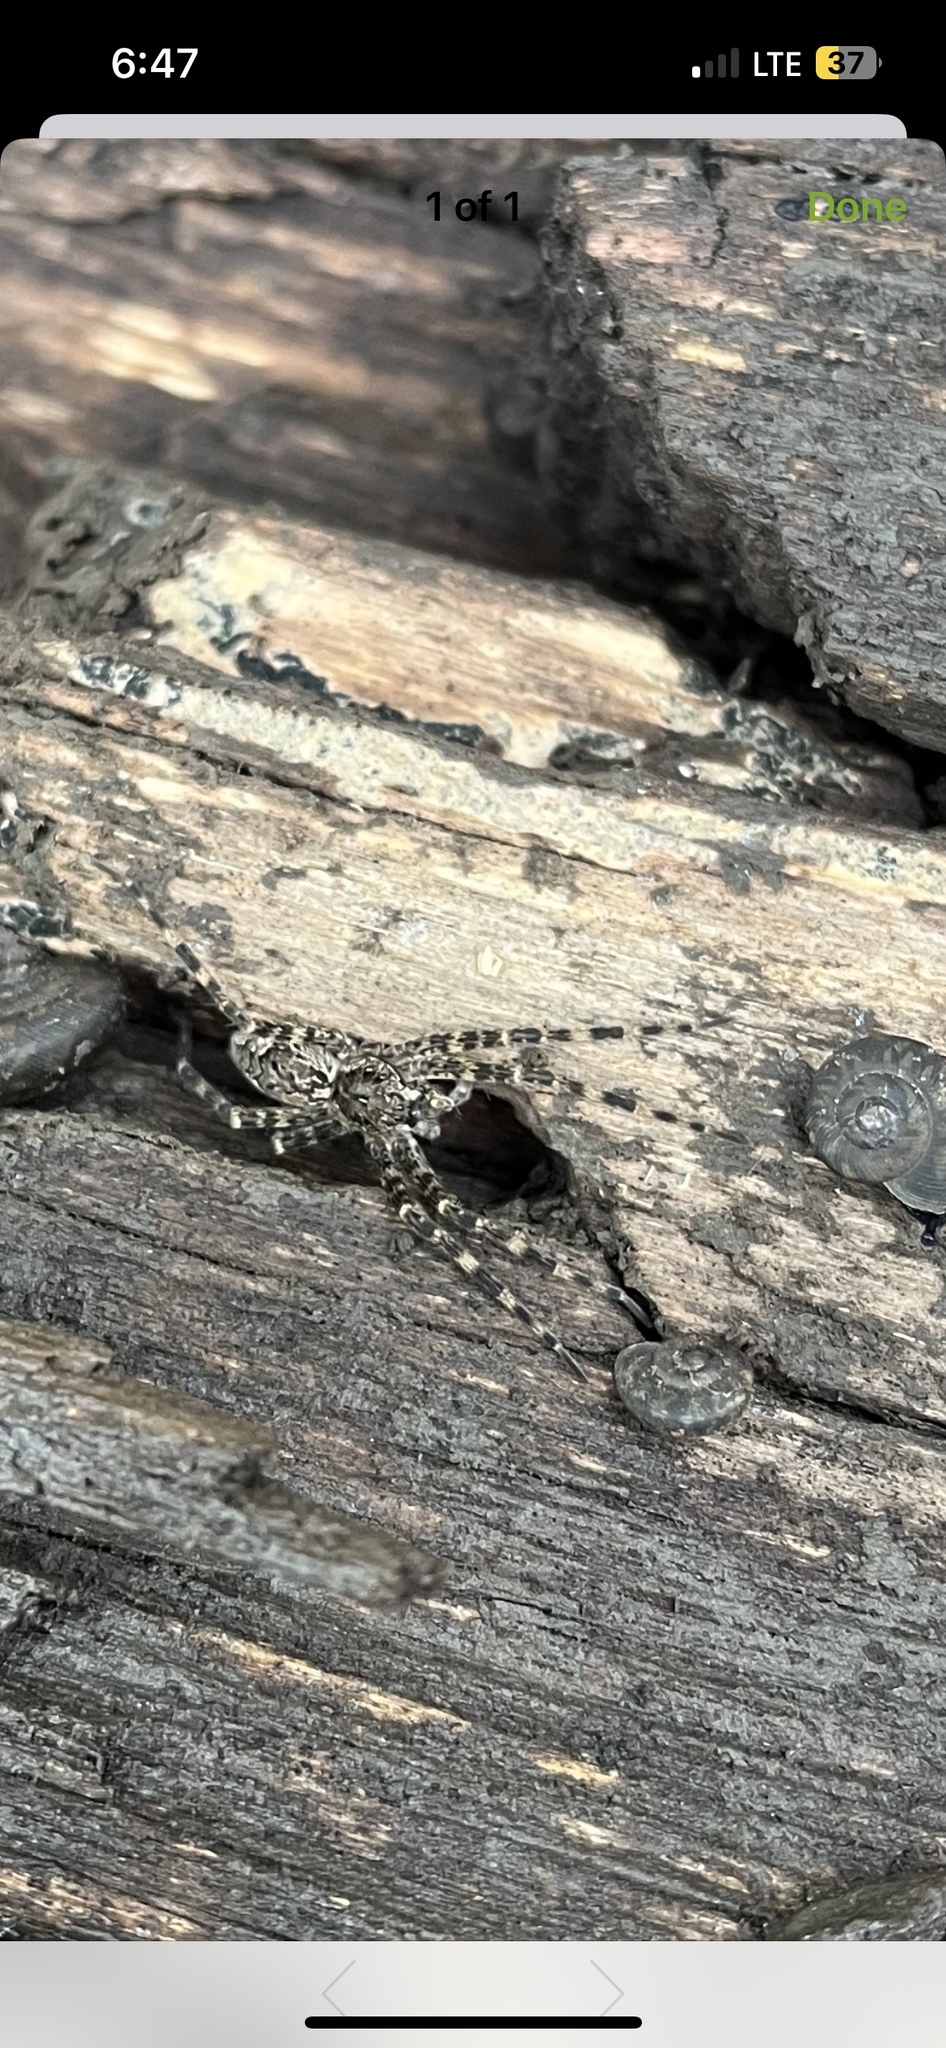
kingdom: Animalia
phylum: Arthropoda
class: Arachnida
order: Araneae
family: Pisauridae
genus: Dolomedes
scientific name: Dolomedes tenebrosus
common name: Dark fishing spider
